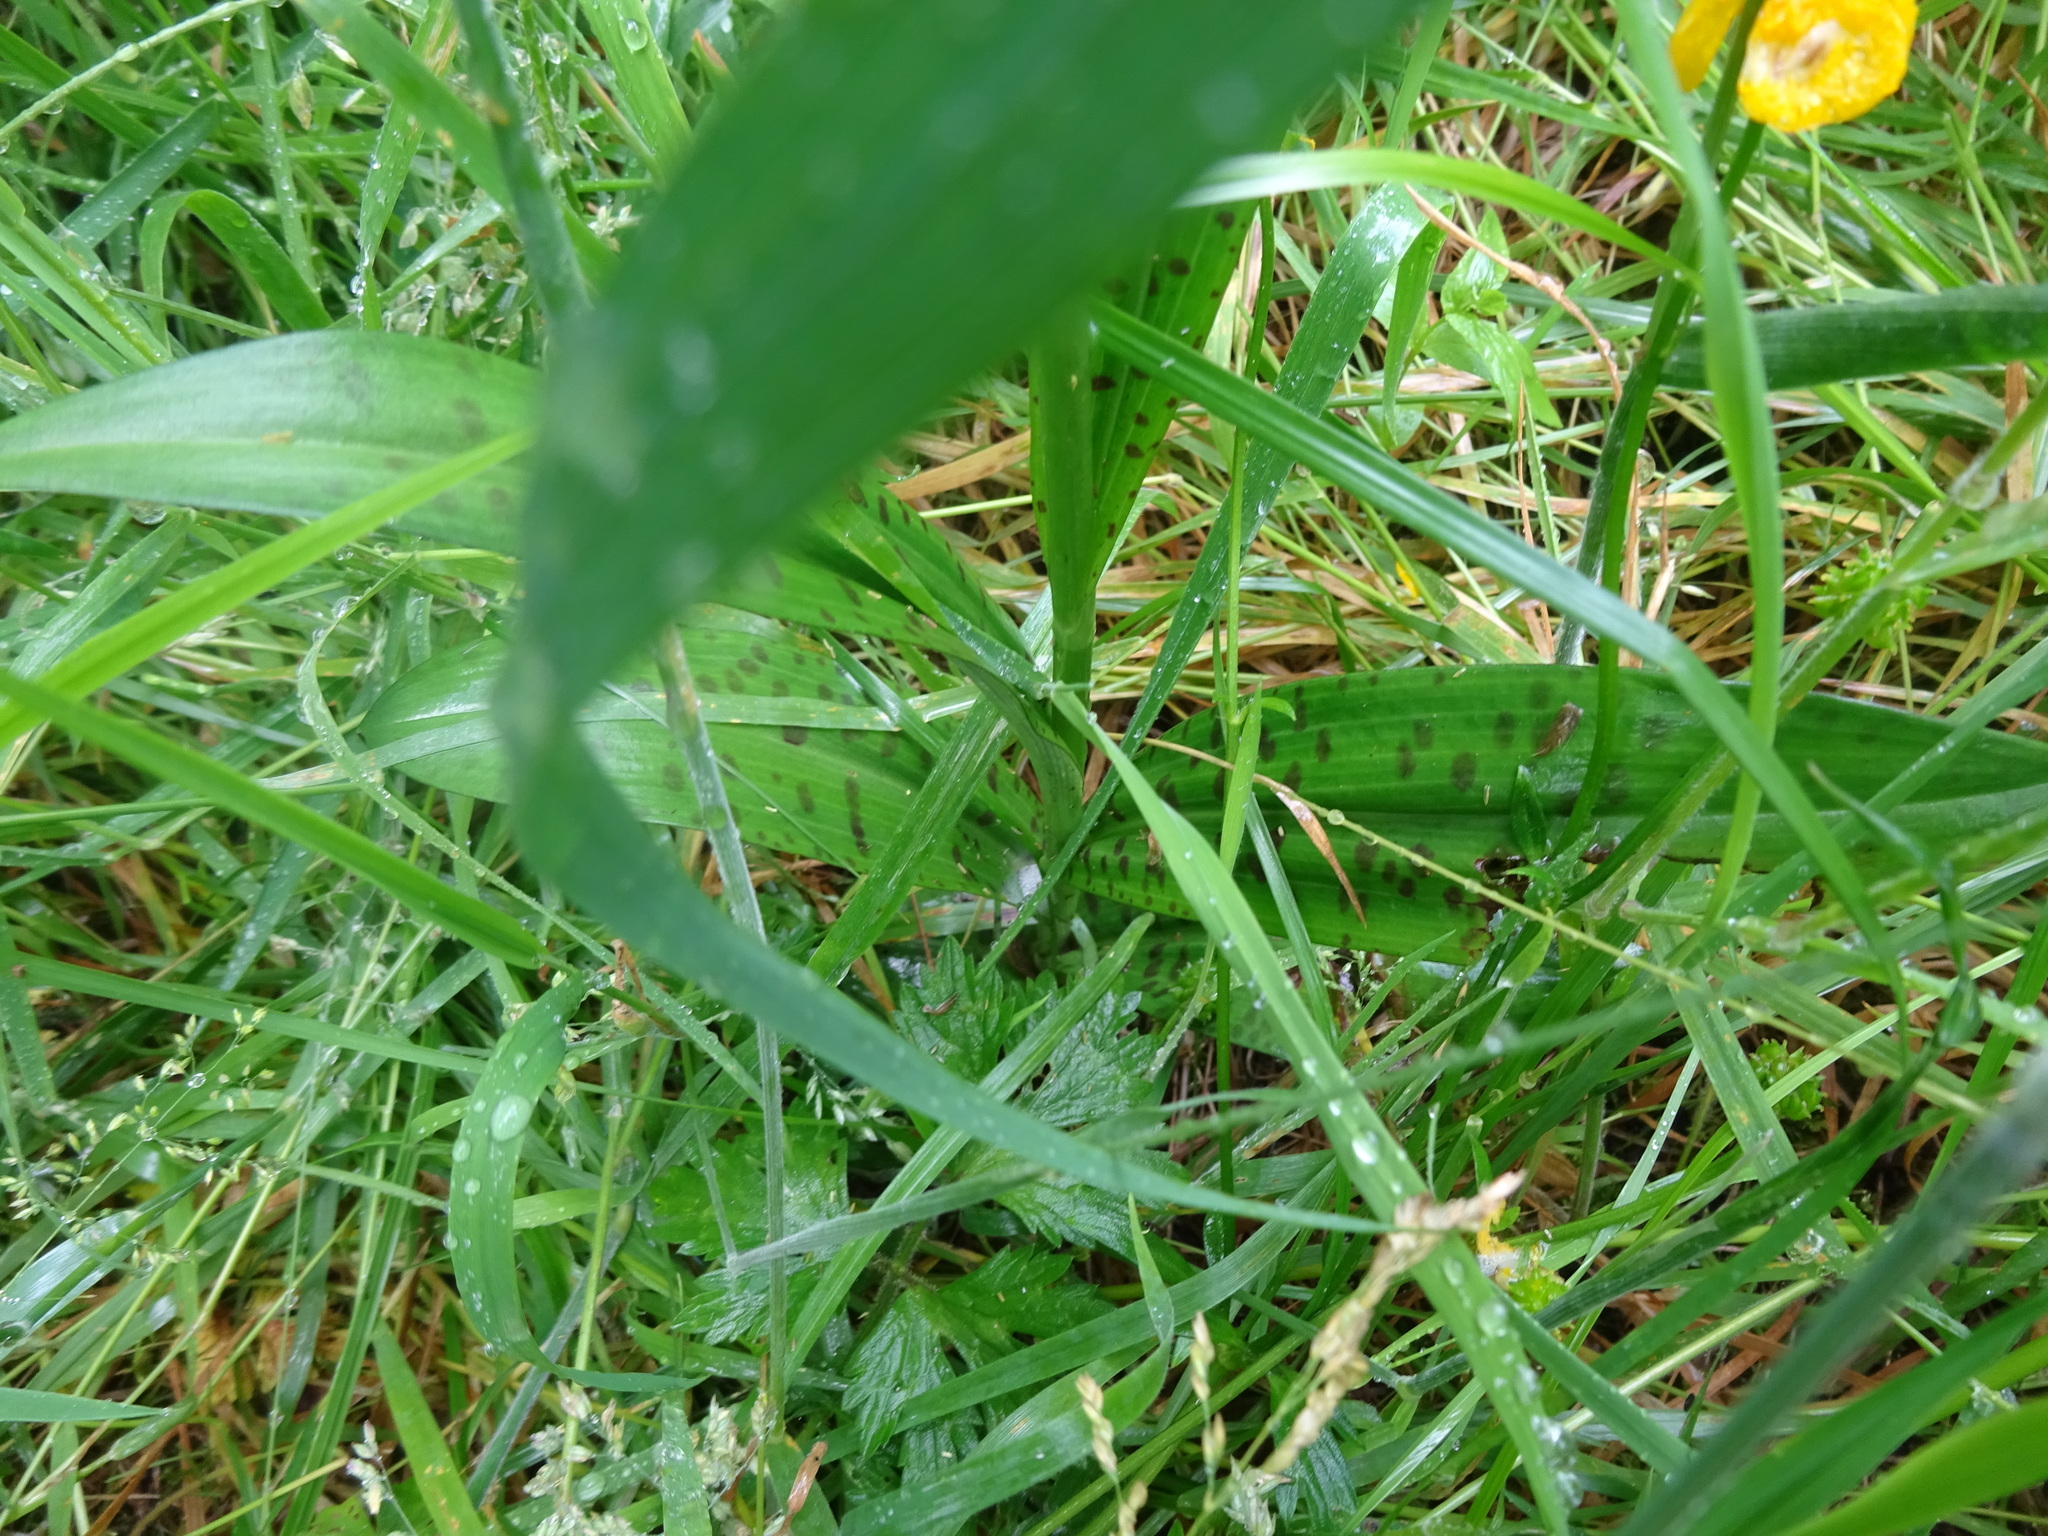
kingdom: Plantae
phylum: Tracheophyta
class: Liliopsida
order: Asparagales
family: Orchidaceae
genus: Dactylorhiza
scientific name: Dactylorhiza maculata
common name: Heath spotted-orchid
